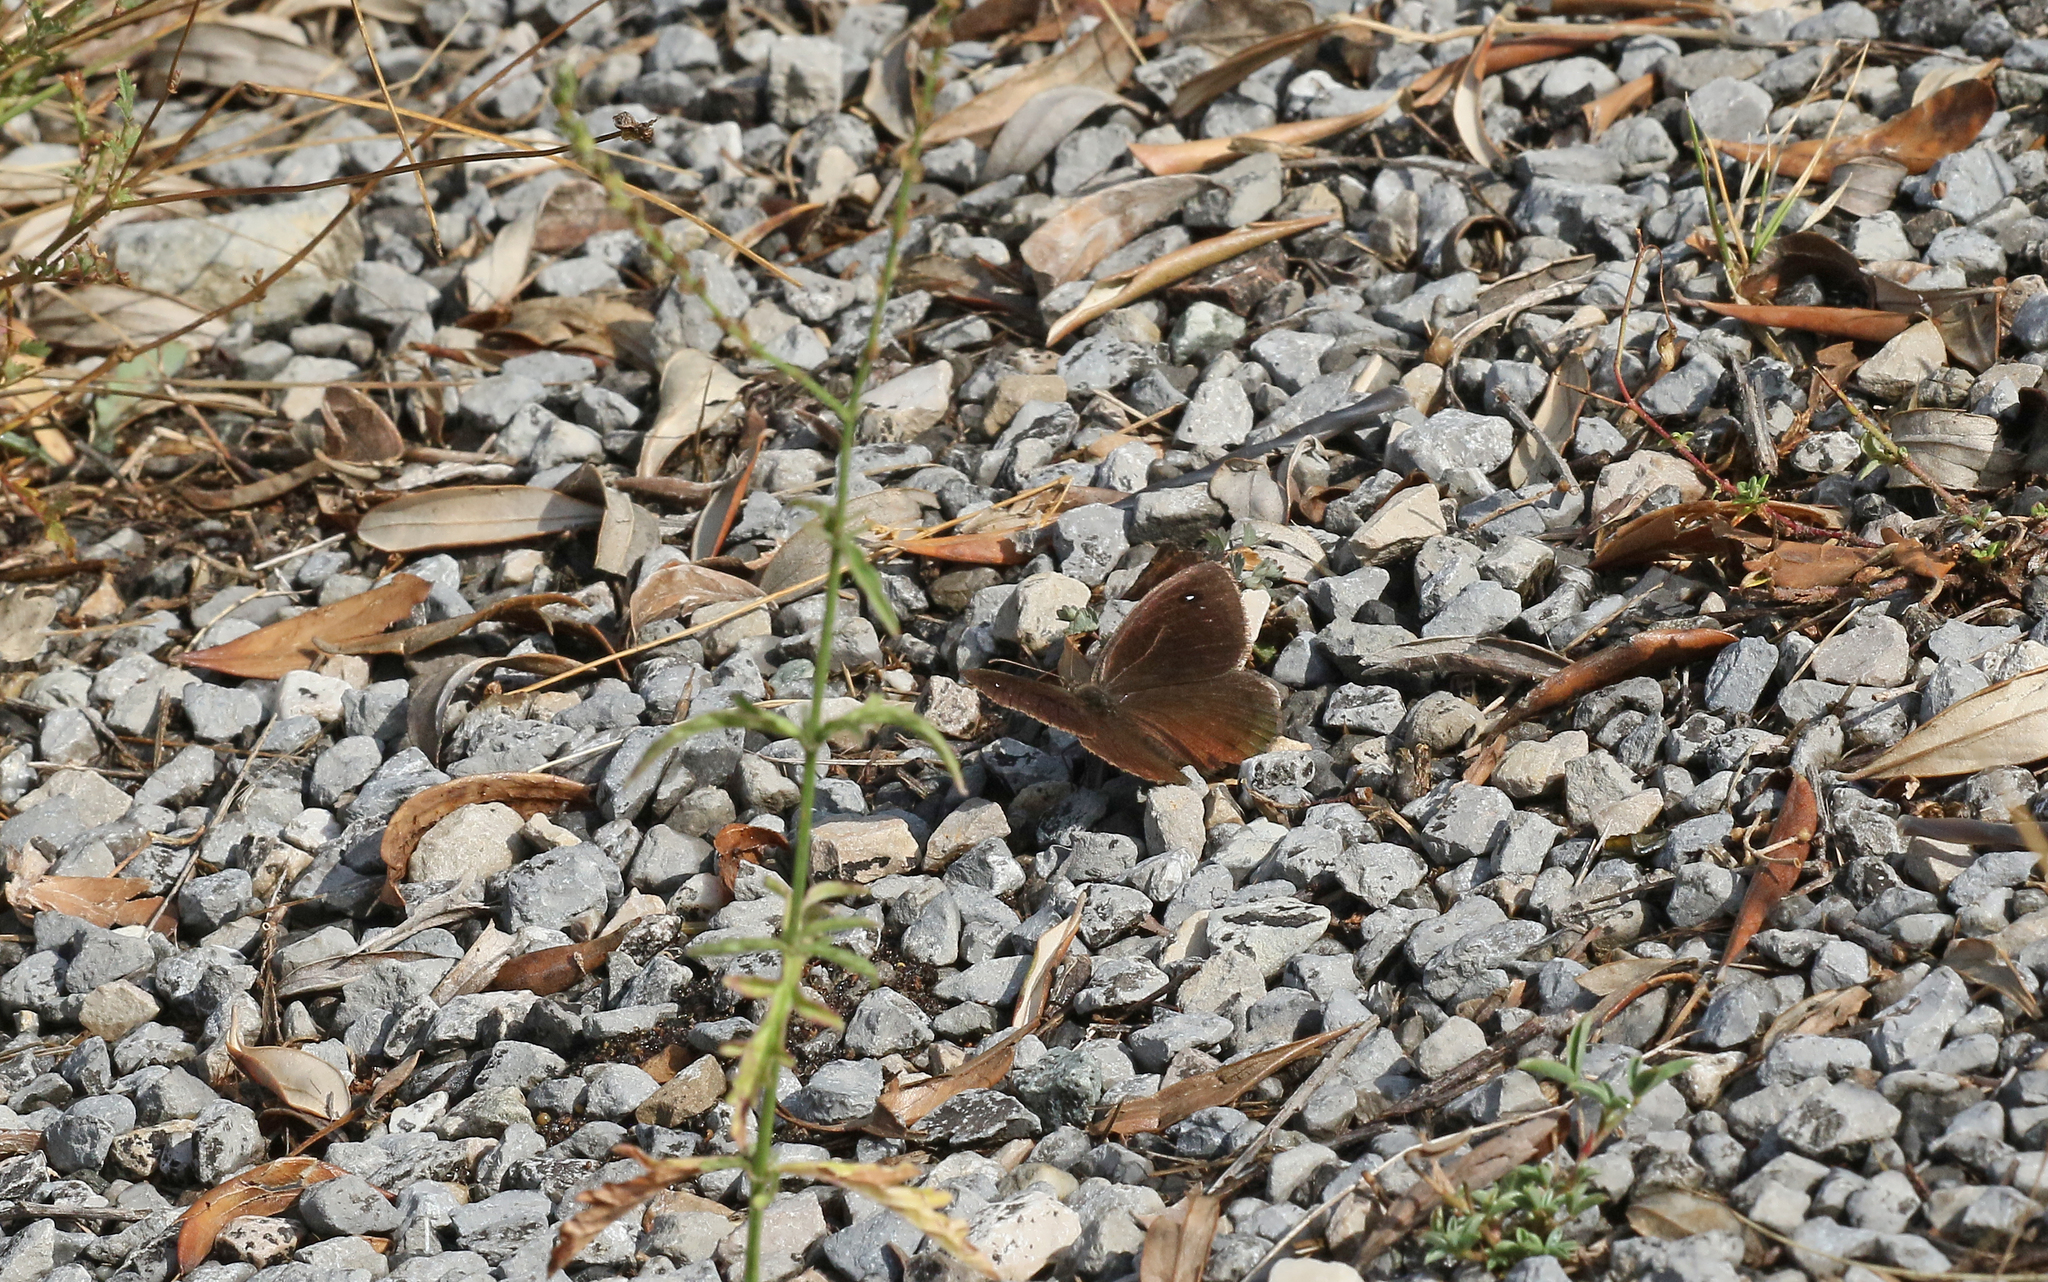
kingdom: Animalia
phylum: Arthropoda
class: Insecta
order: Lepidoptera
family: Nymphalidae
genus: Satyrus
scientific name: Satyrus actaea
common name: Black satyr
